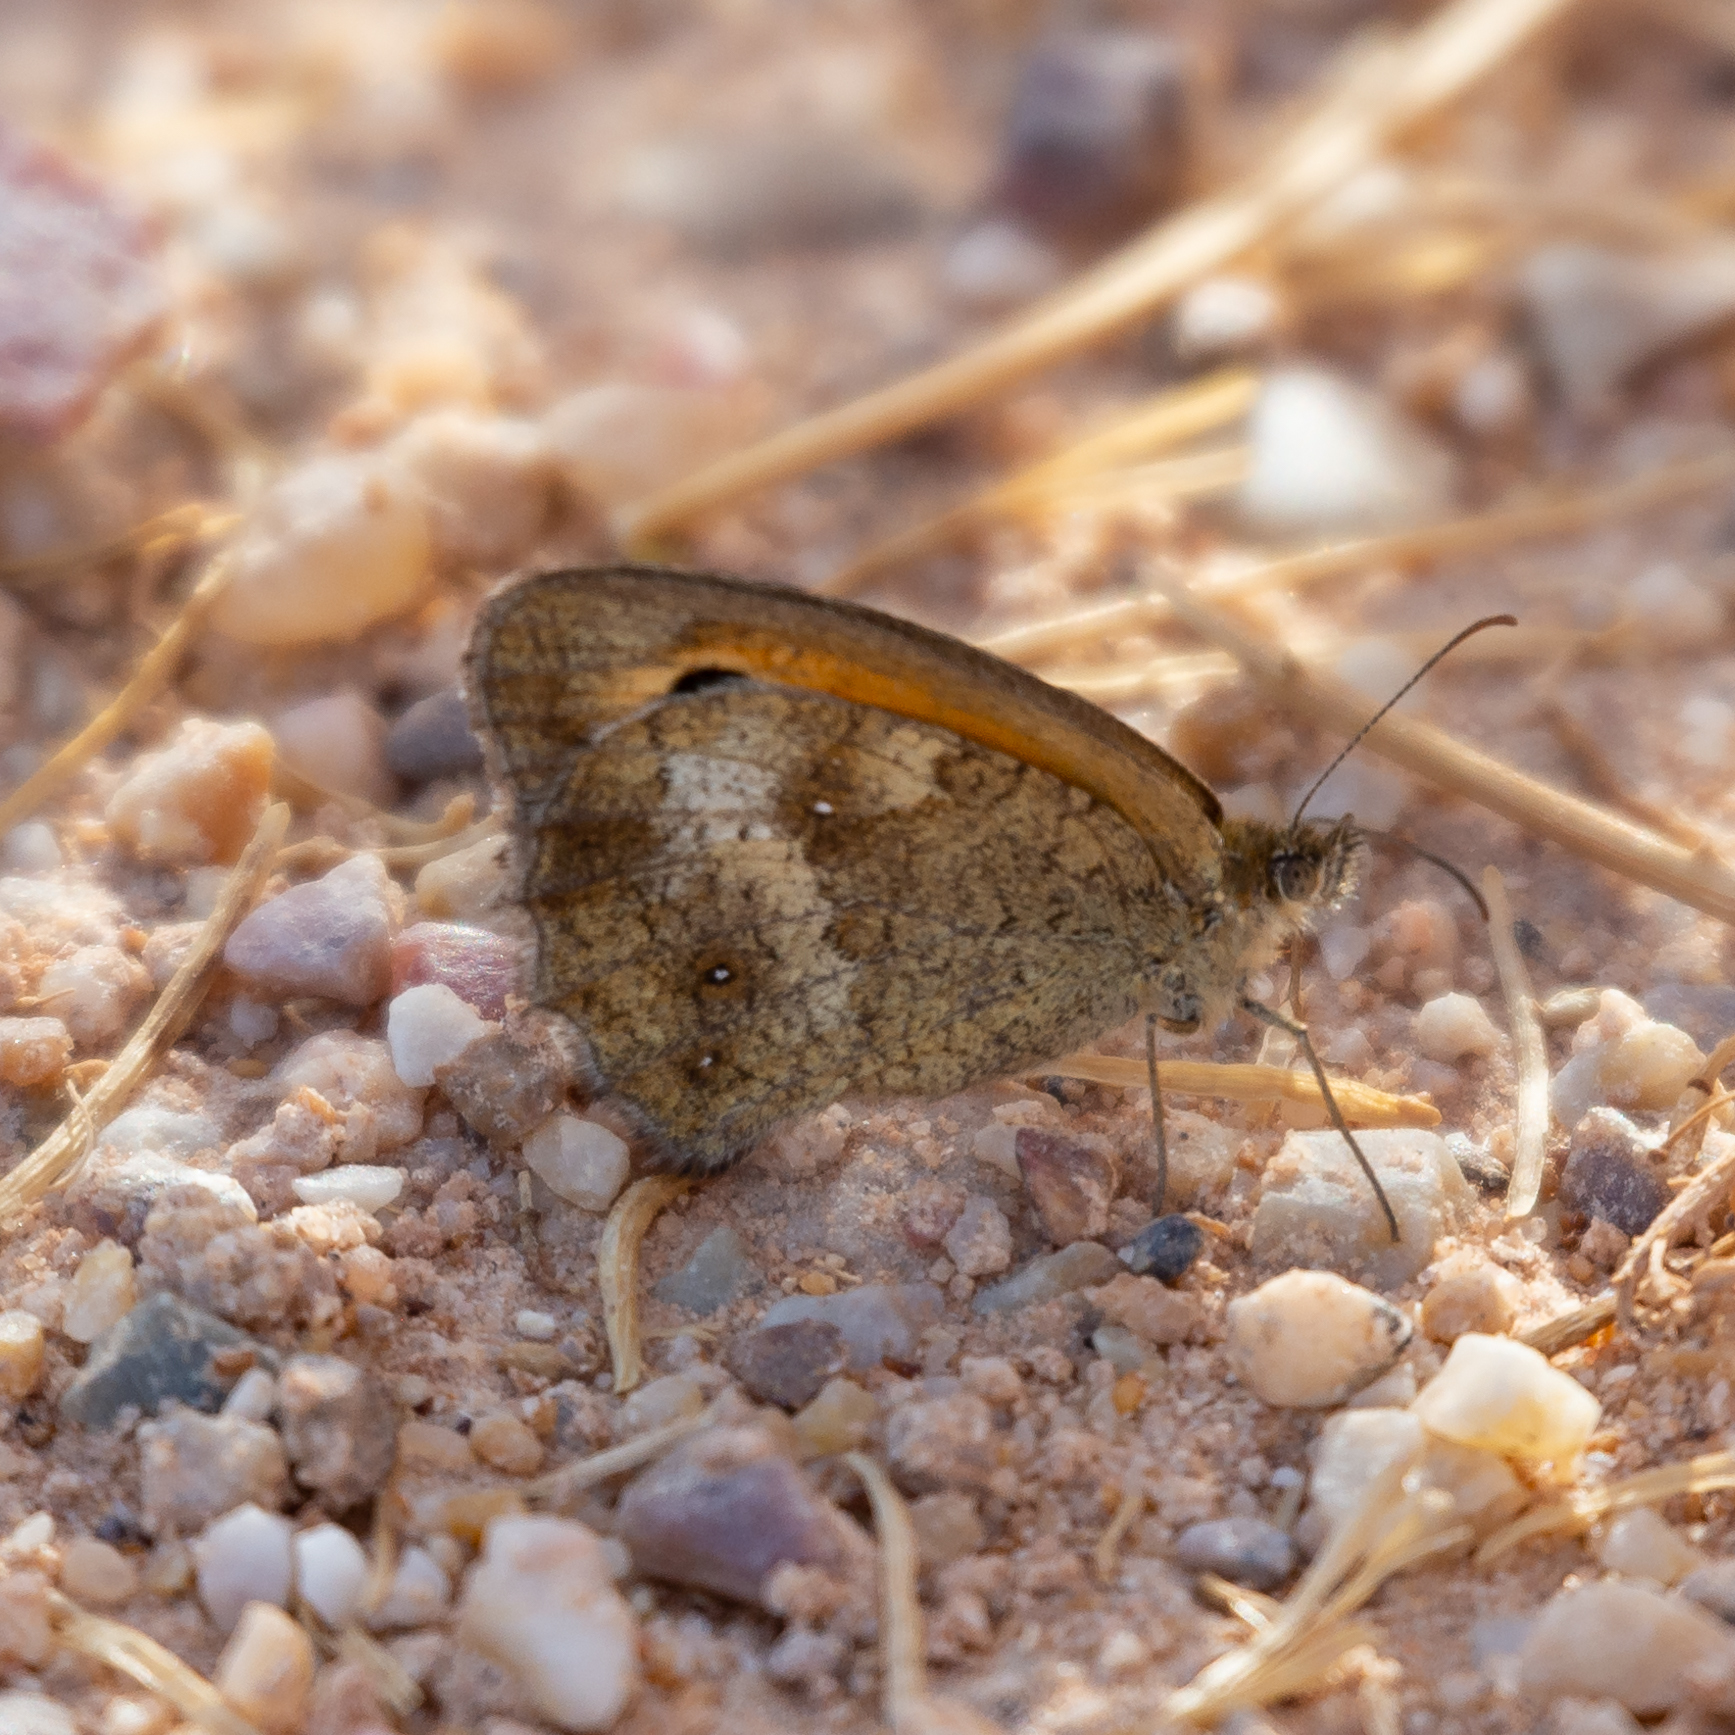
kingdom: Animalia
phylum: Arthropoda
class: Insecta
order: Lepidoptera
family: Nymphalidae
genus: Pyronia
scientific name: Pyronia tithonus
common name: Gatekeeper
